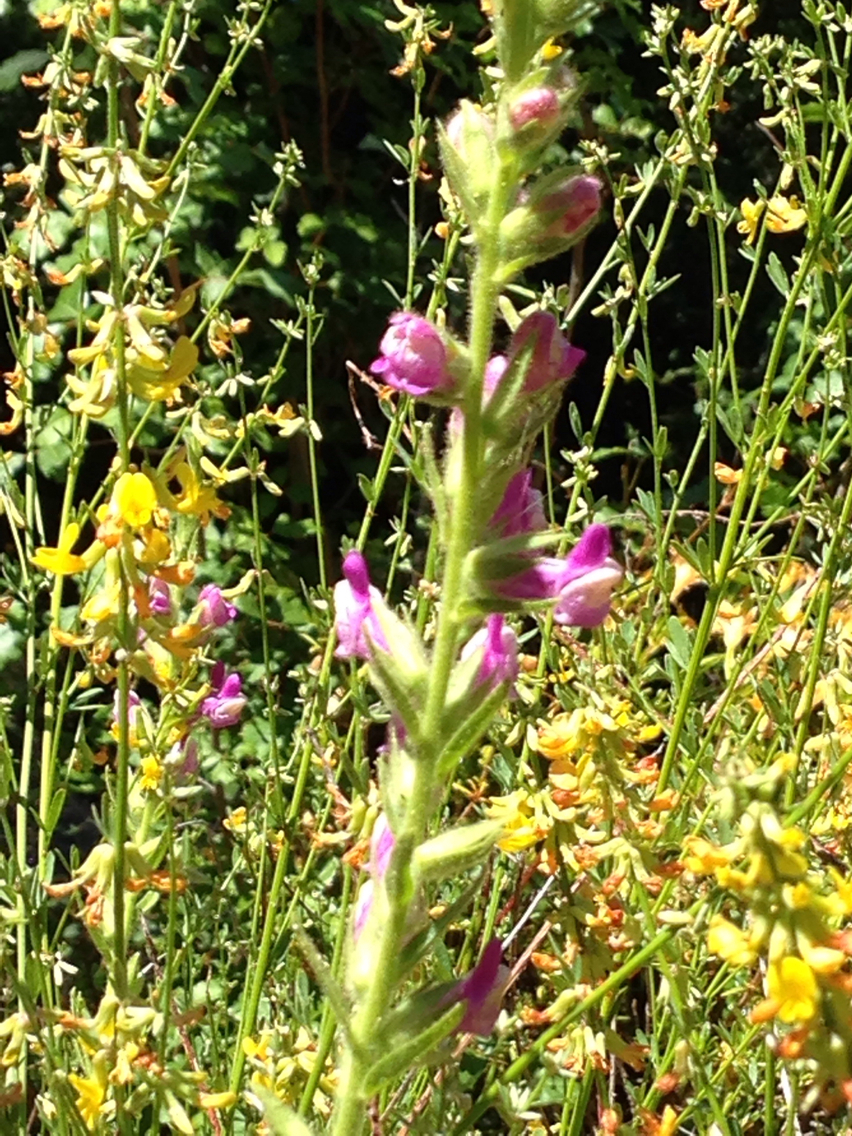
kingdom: Plantae
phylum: Tracheophyta
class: Magnoliopsida
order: Lamiales
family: Plantaginaceae
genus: Sairocarpus
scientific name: Sairocarpus multiflorus
